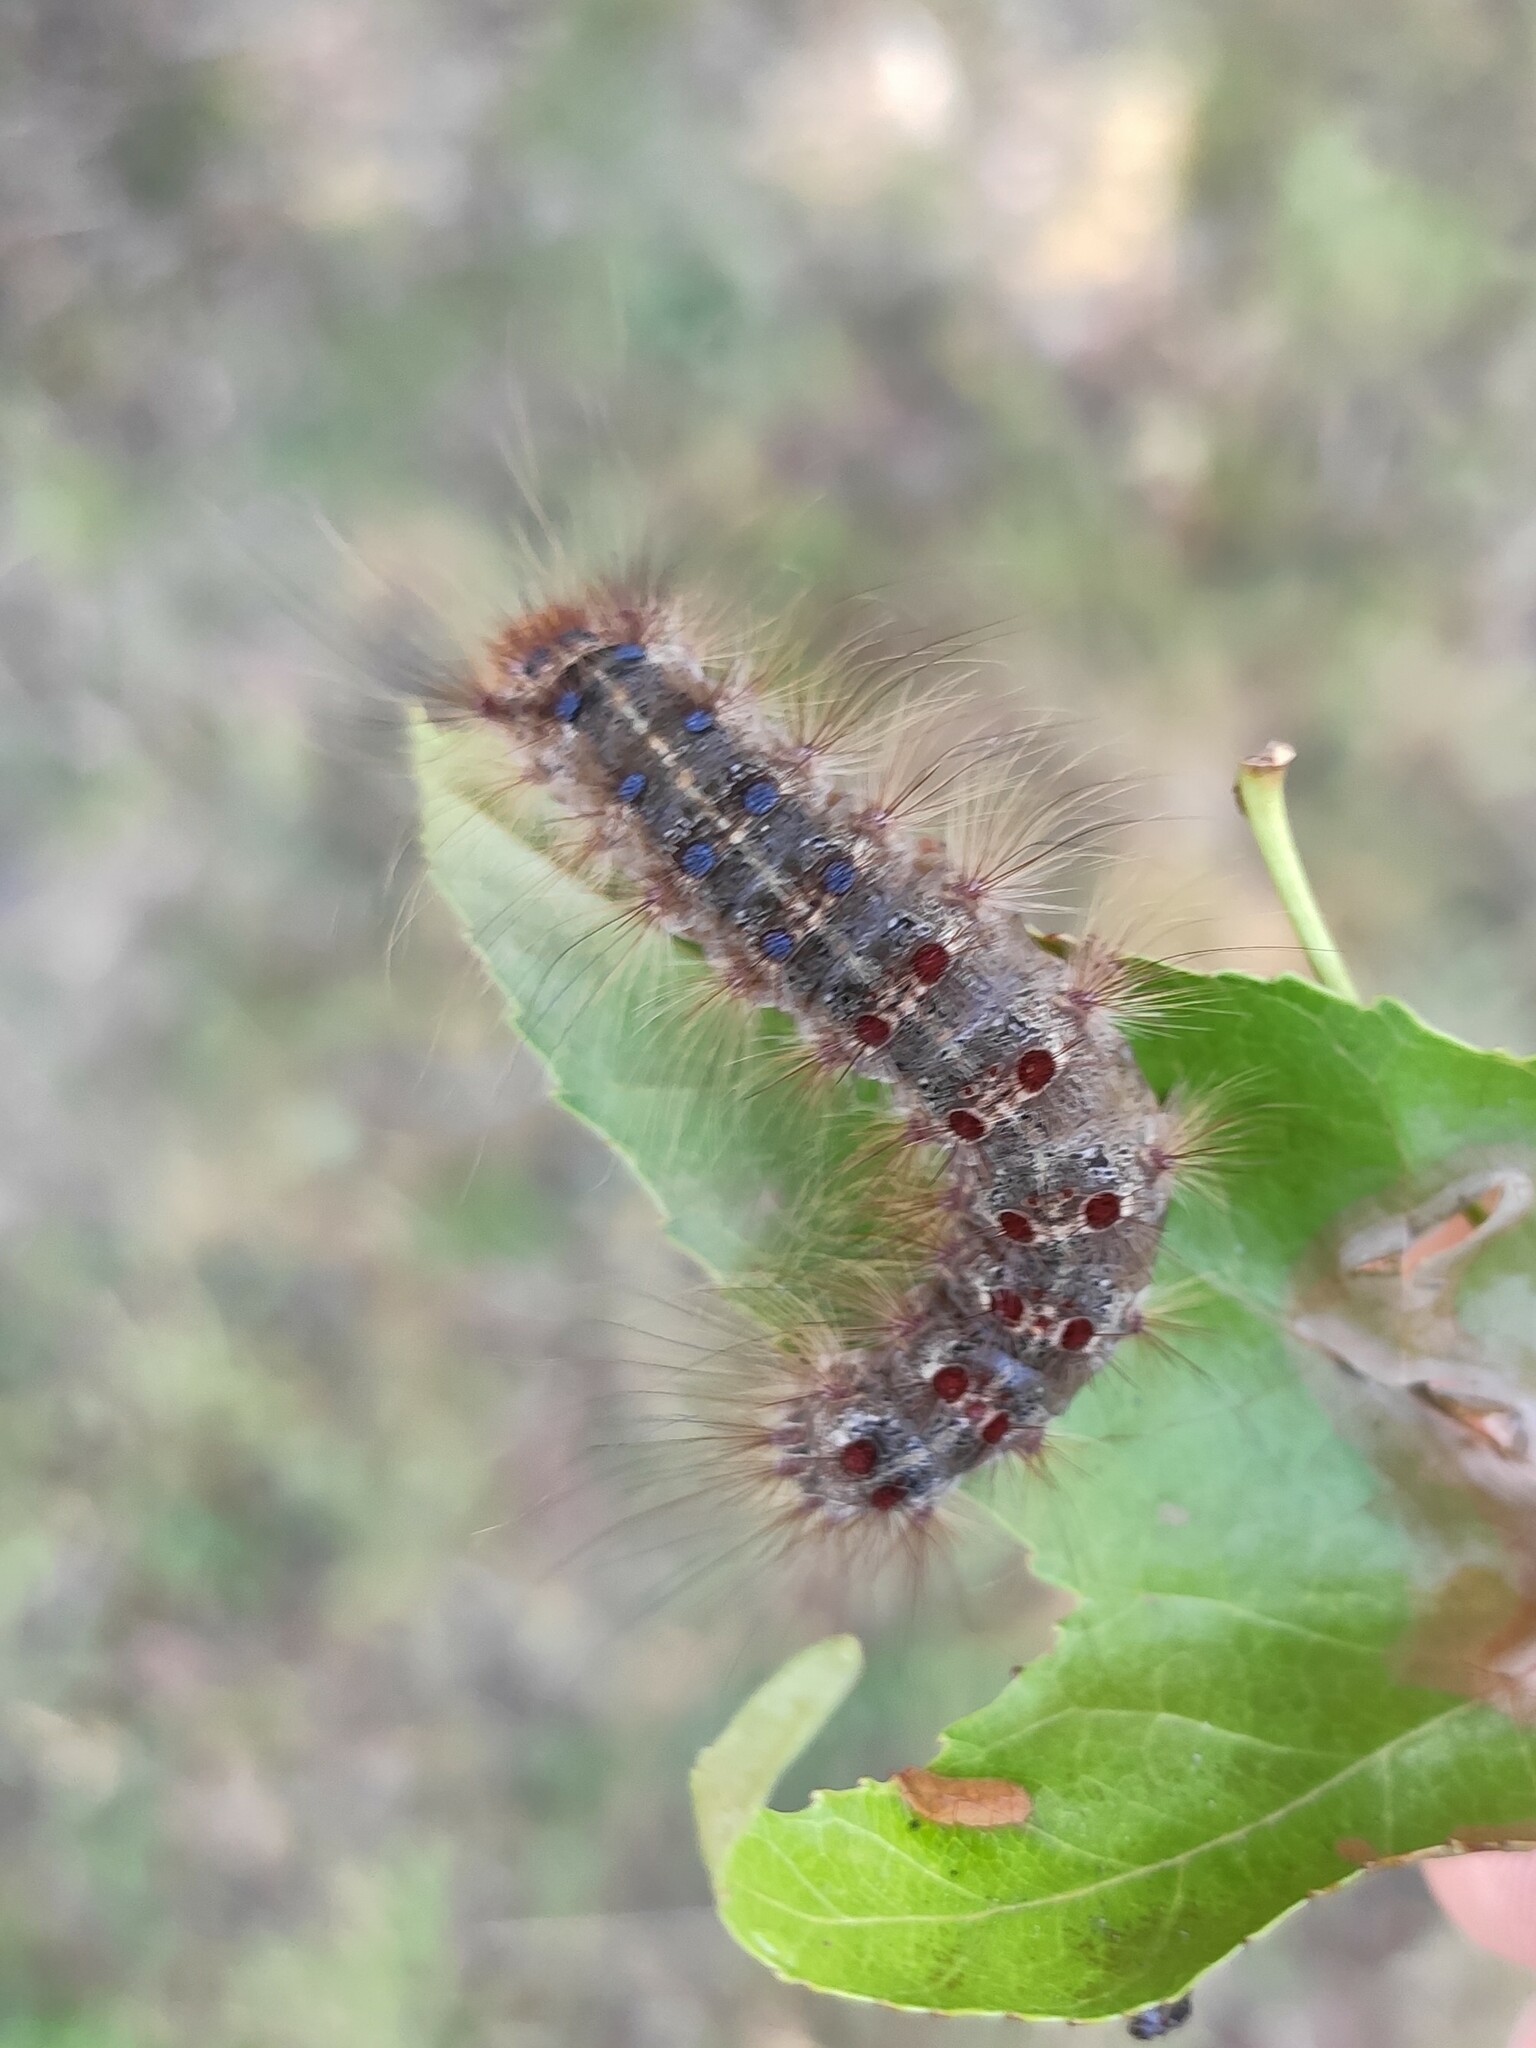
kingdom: Animalia
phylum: Arthropoda
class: Insecta
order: Lepidoptera
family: Erebidae
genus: Lymantria
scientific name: Lymantria dispar
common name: Gypsy moth
